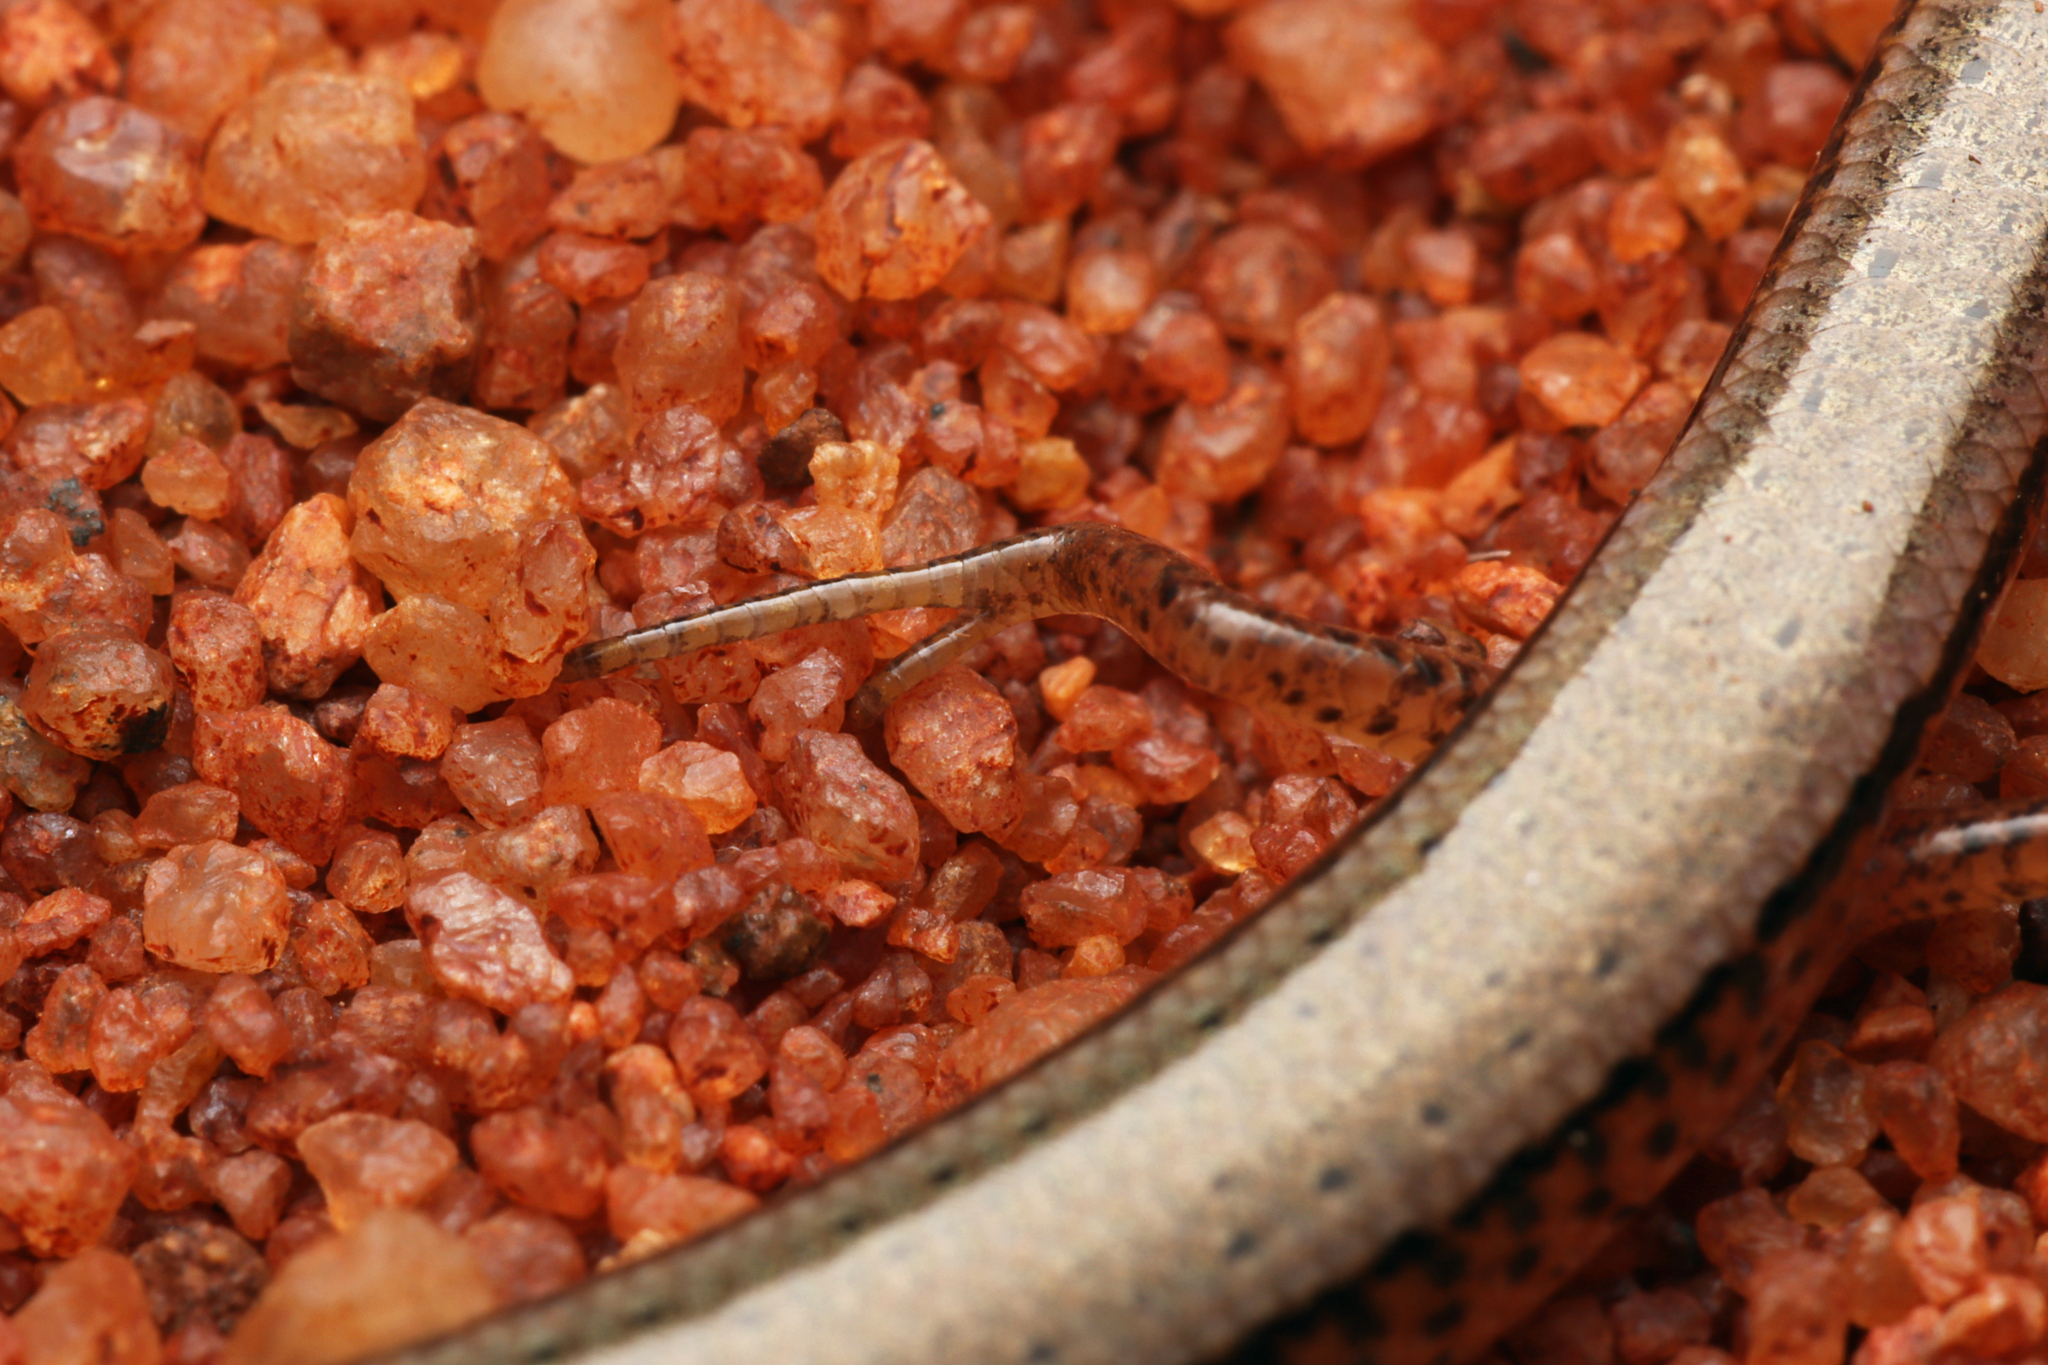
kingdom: Animalia
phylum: Chordata
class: Squamata
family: Scincidae
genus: Lerista
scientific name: Lerista stictopleura
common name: Spotted broad-blazed slider
